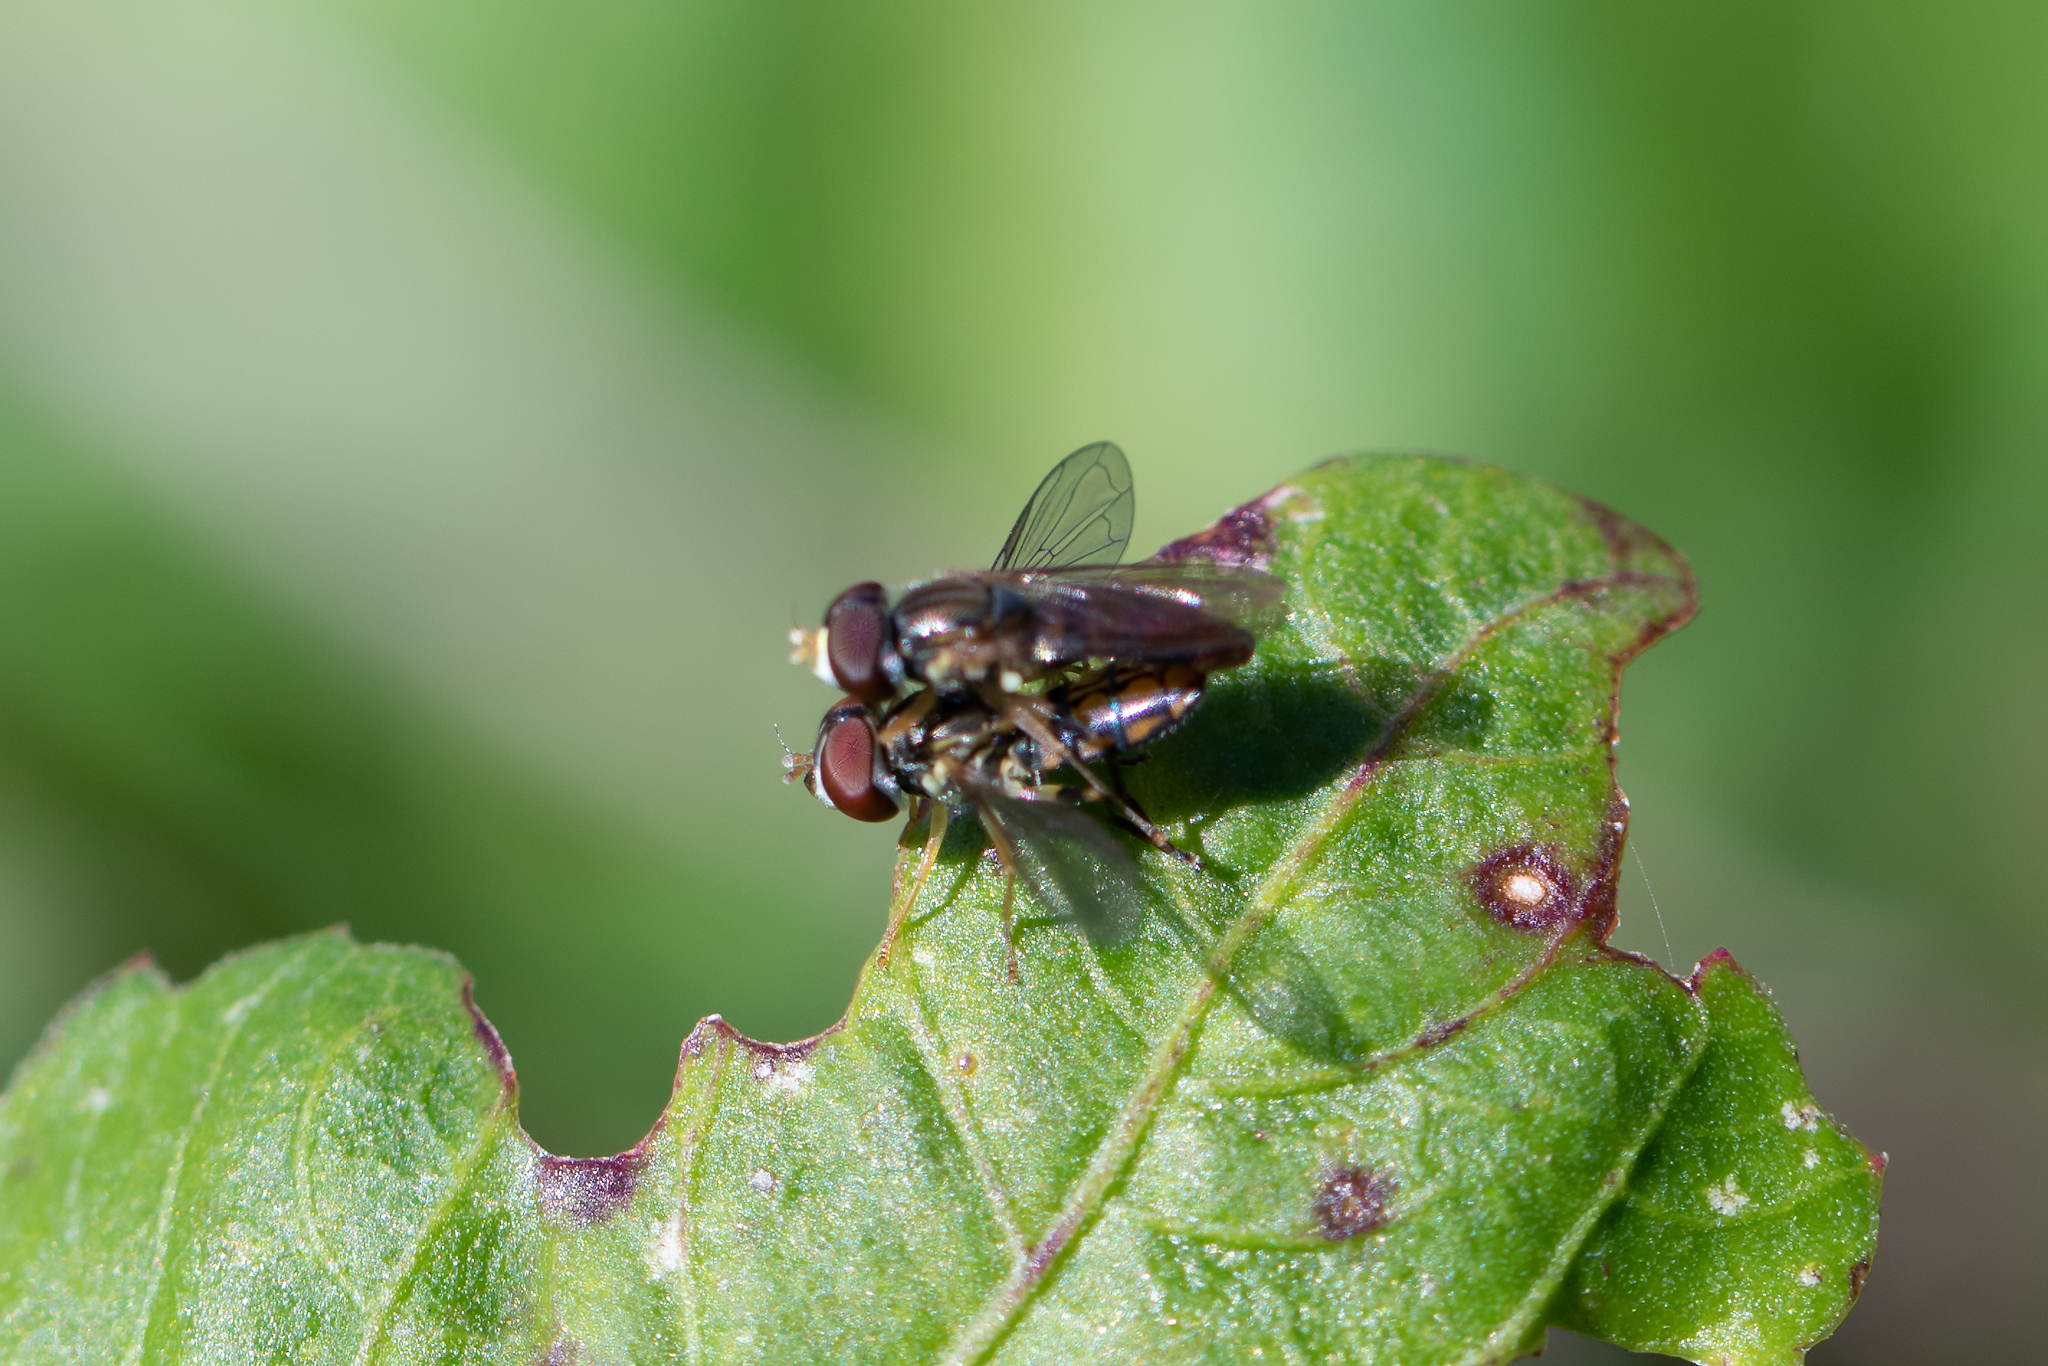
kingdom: Animalia
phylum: Arthropoda
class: Insecta
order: Diptera
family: Syrphidae
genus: Toxomerus
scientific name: Toxomerus boscii
